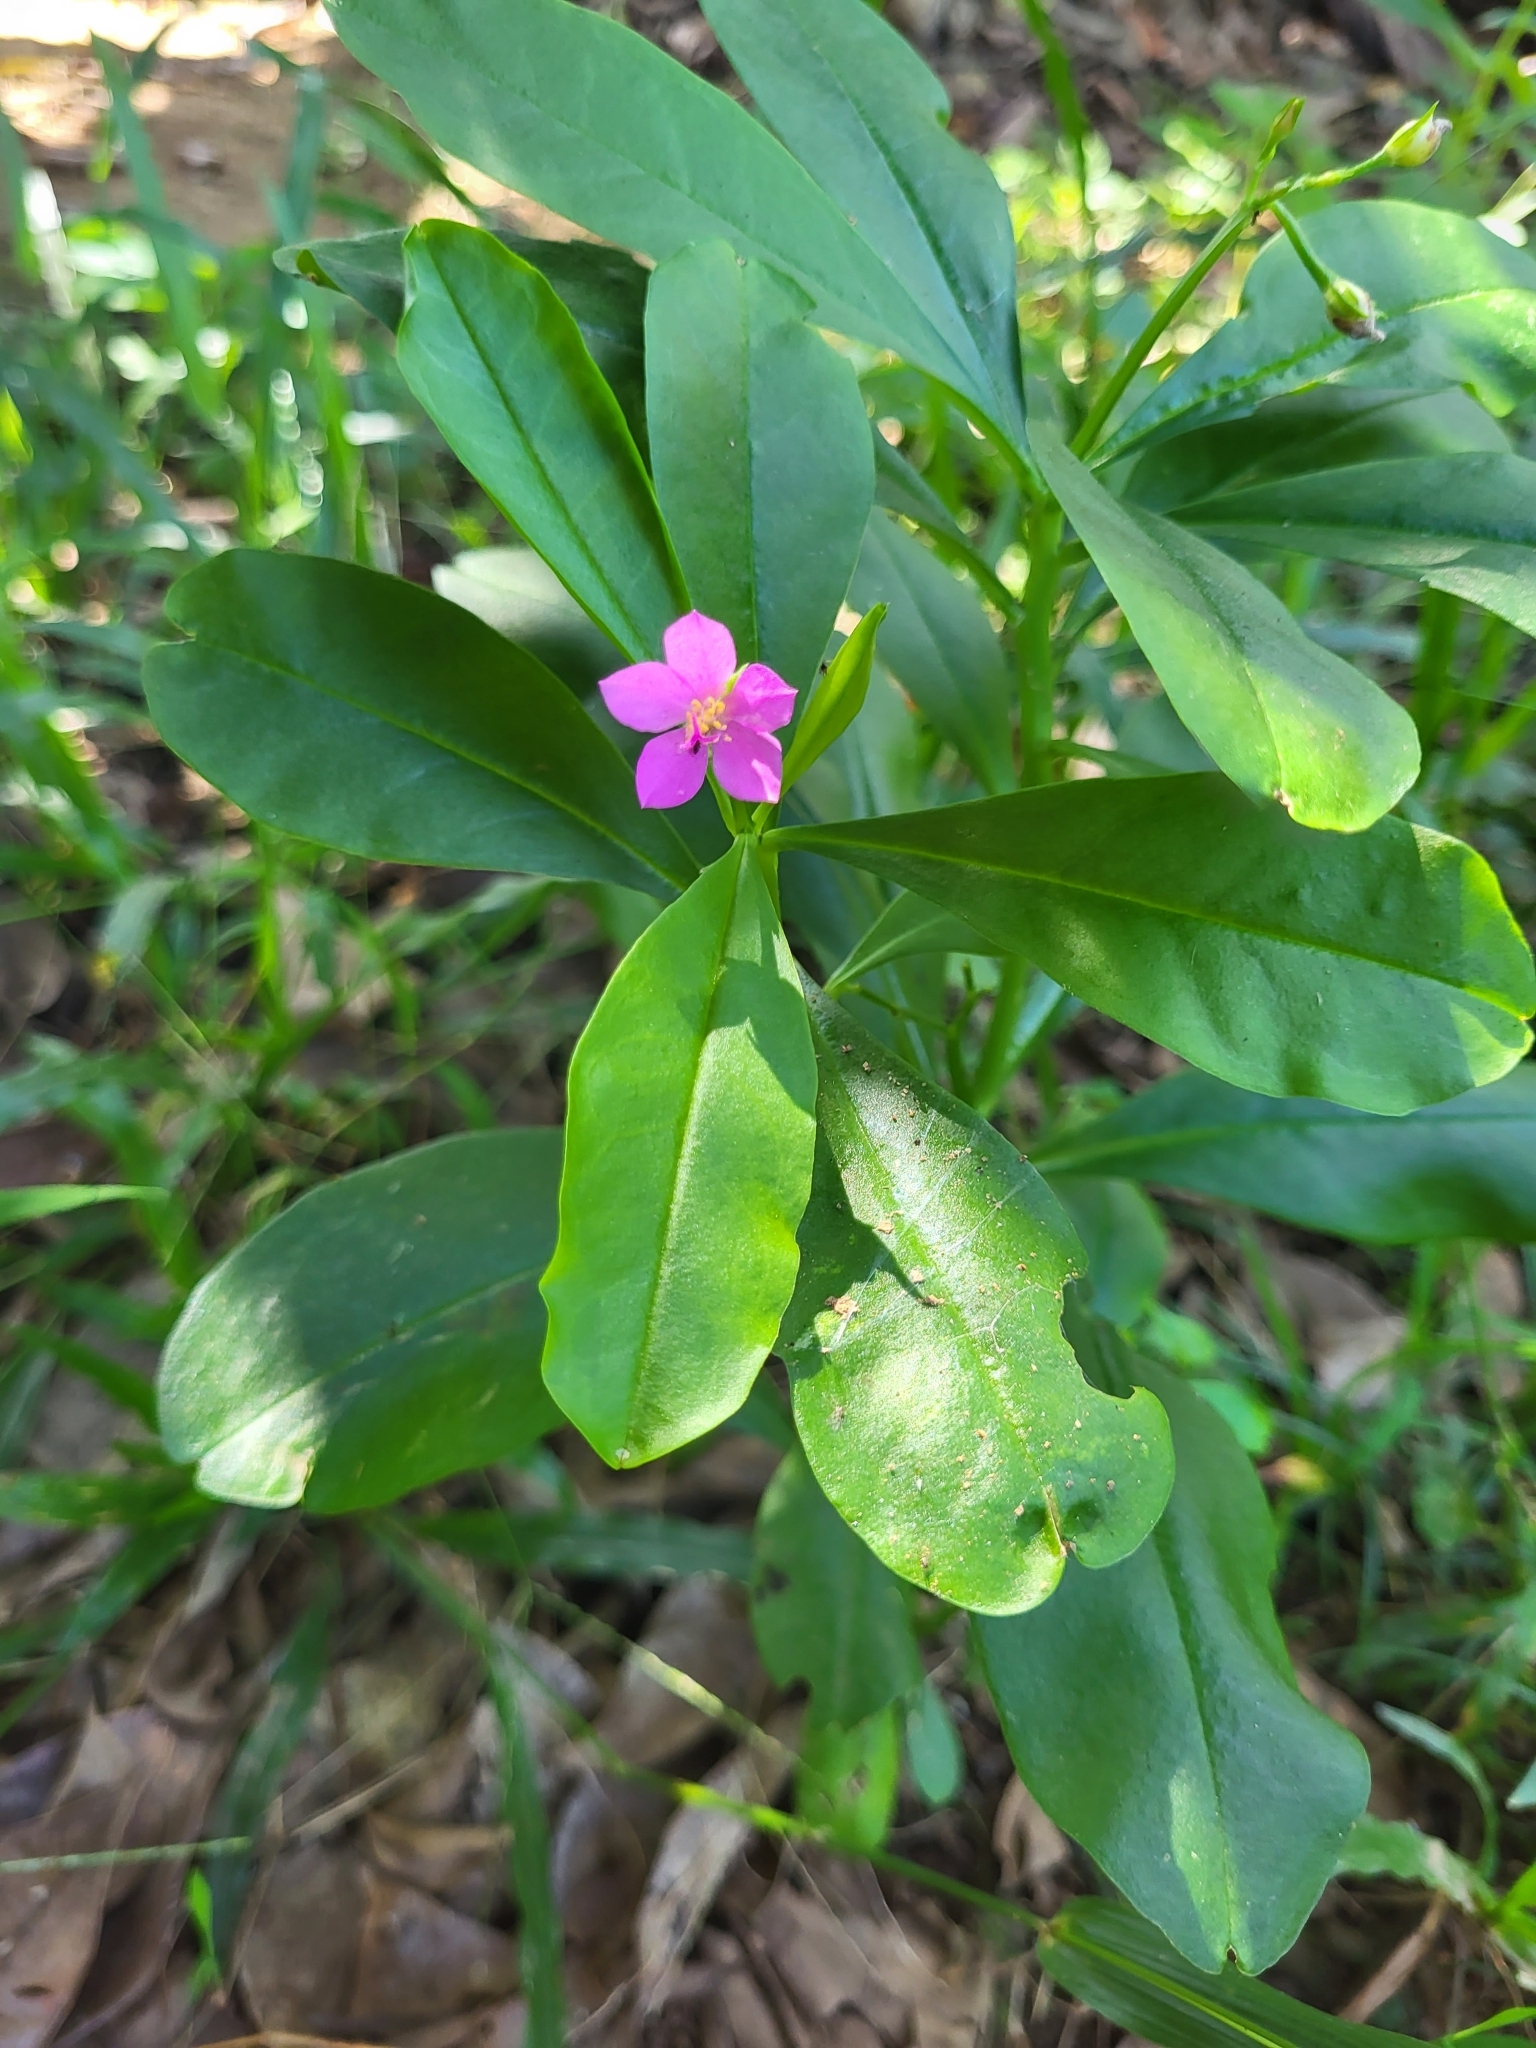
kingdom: Plantae
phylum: Tracheophyta
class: Magnoliopsida
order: Caryophyllales
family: Talinaceae
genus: Talinum
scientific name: Talinum fruticosum
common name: Verdolaga-francesa
